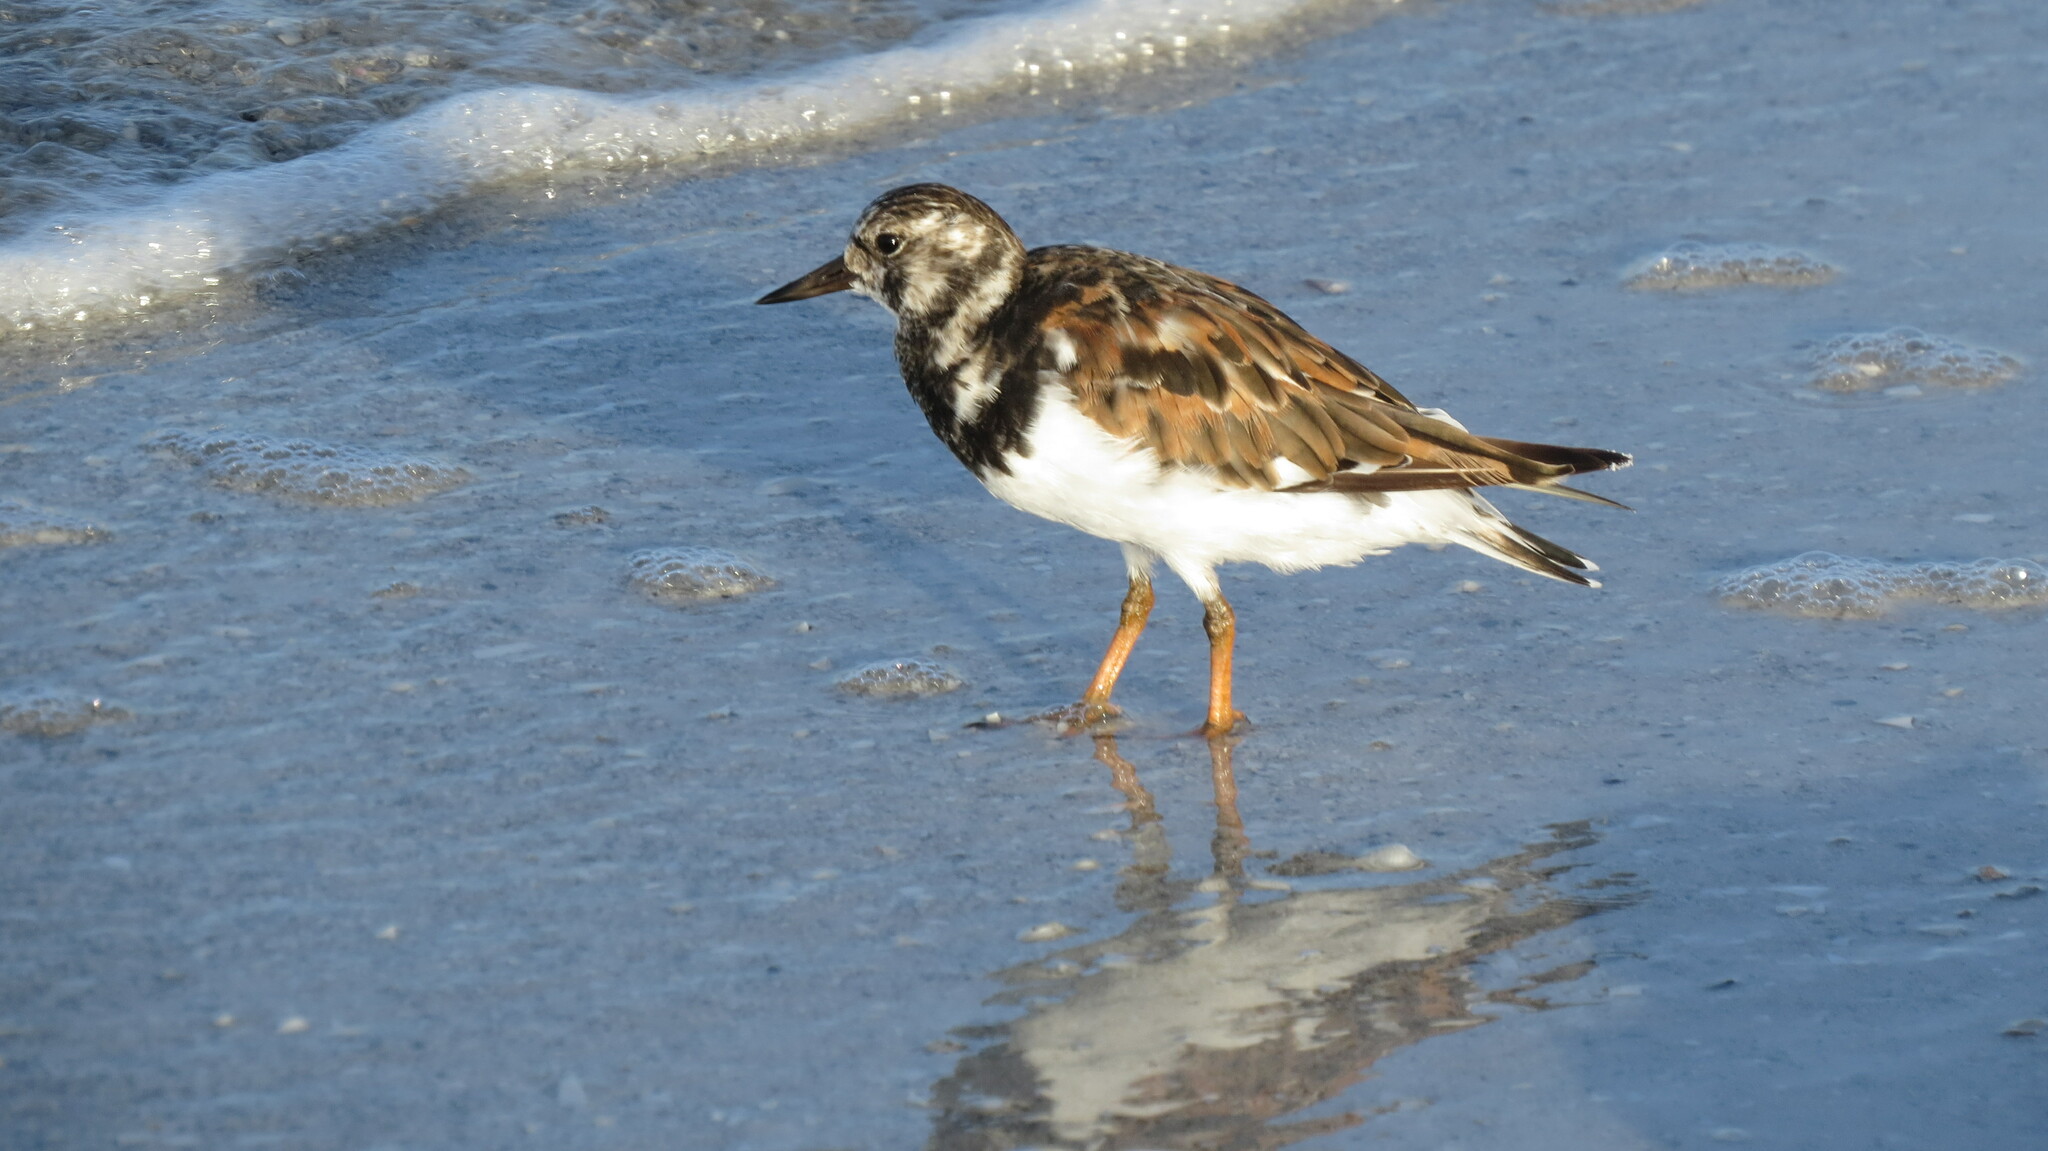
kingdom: Animalia
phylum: Chordata
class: Aves
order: Charadriiformes
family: Scolopacidae
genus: Arenaria
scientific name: Arenaria interpres
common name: Ruddy turnstone
